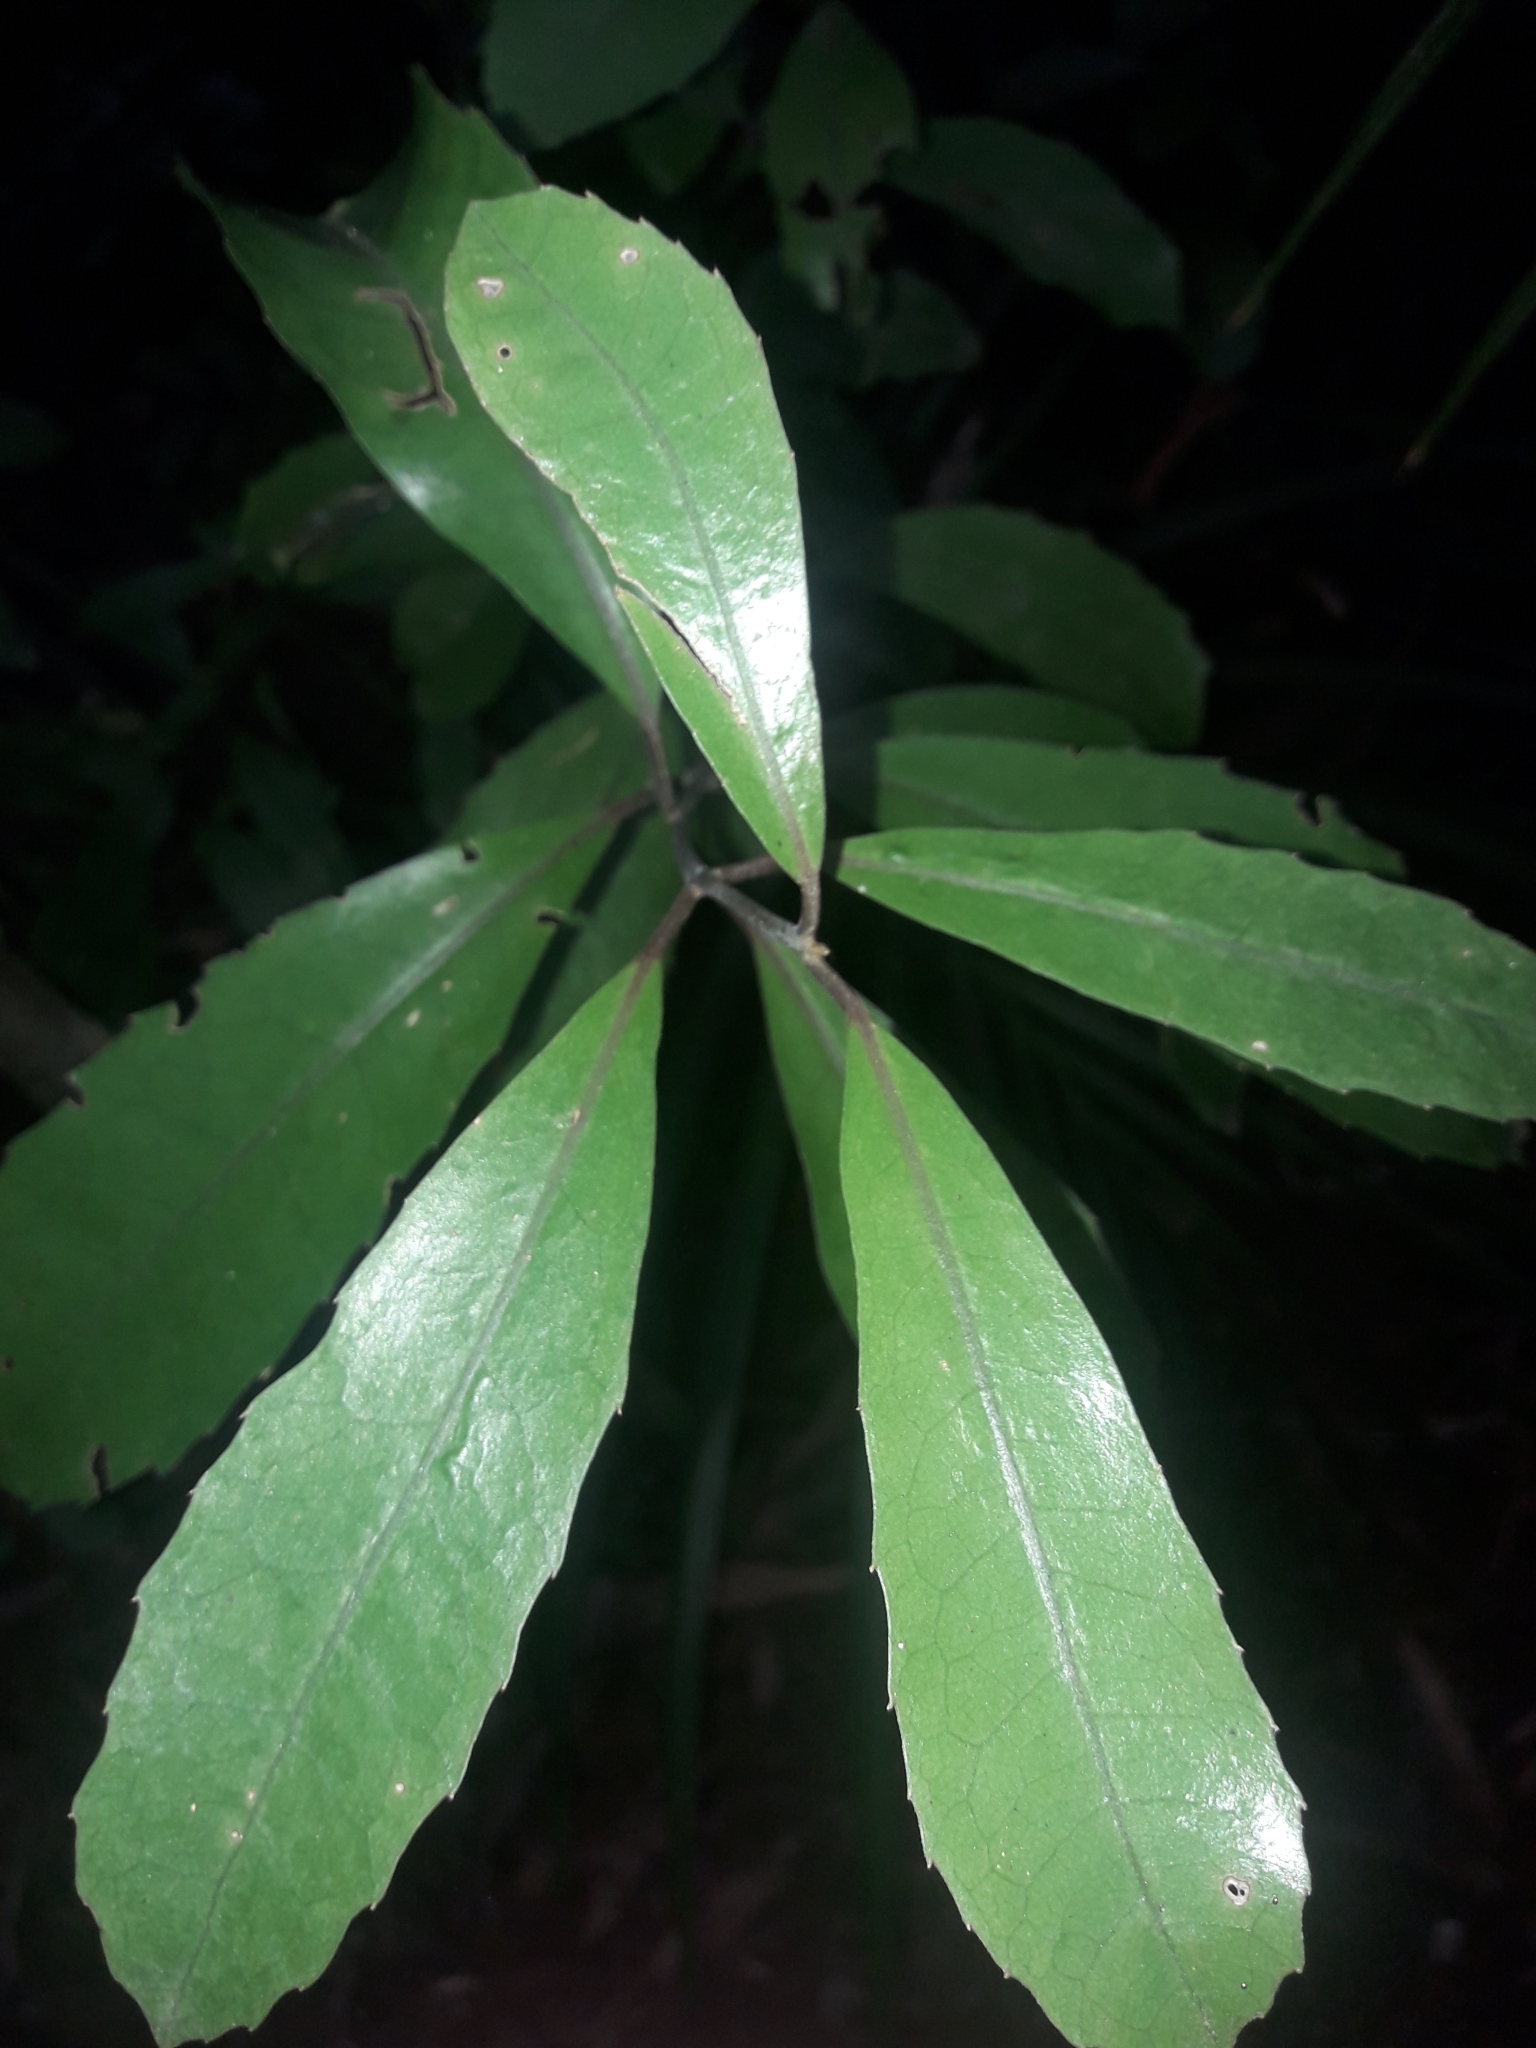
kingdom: Plantae
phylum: Tracheophyta
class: Magnoliopsida
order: Laurales
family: Monimiaceae
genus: Hedycarya
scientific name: Hedycarya arborea
